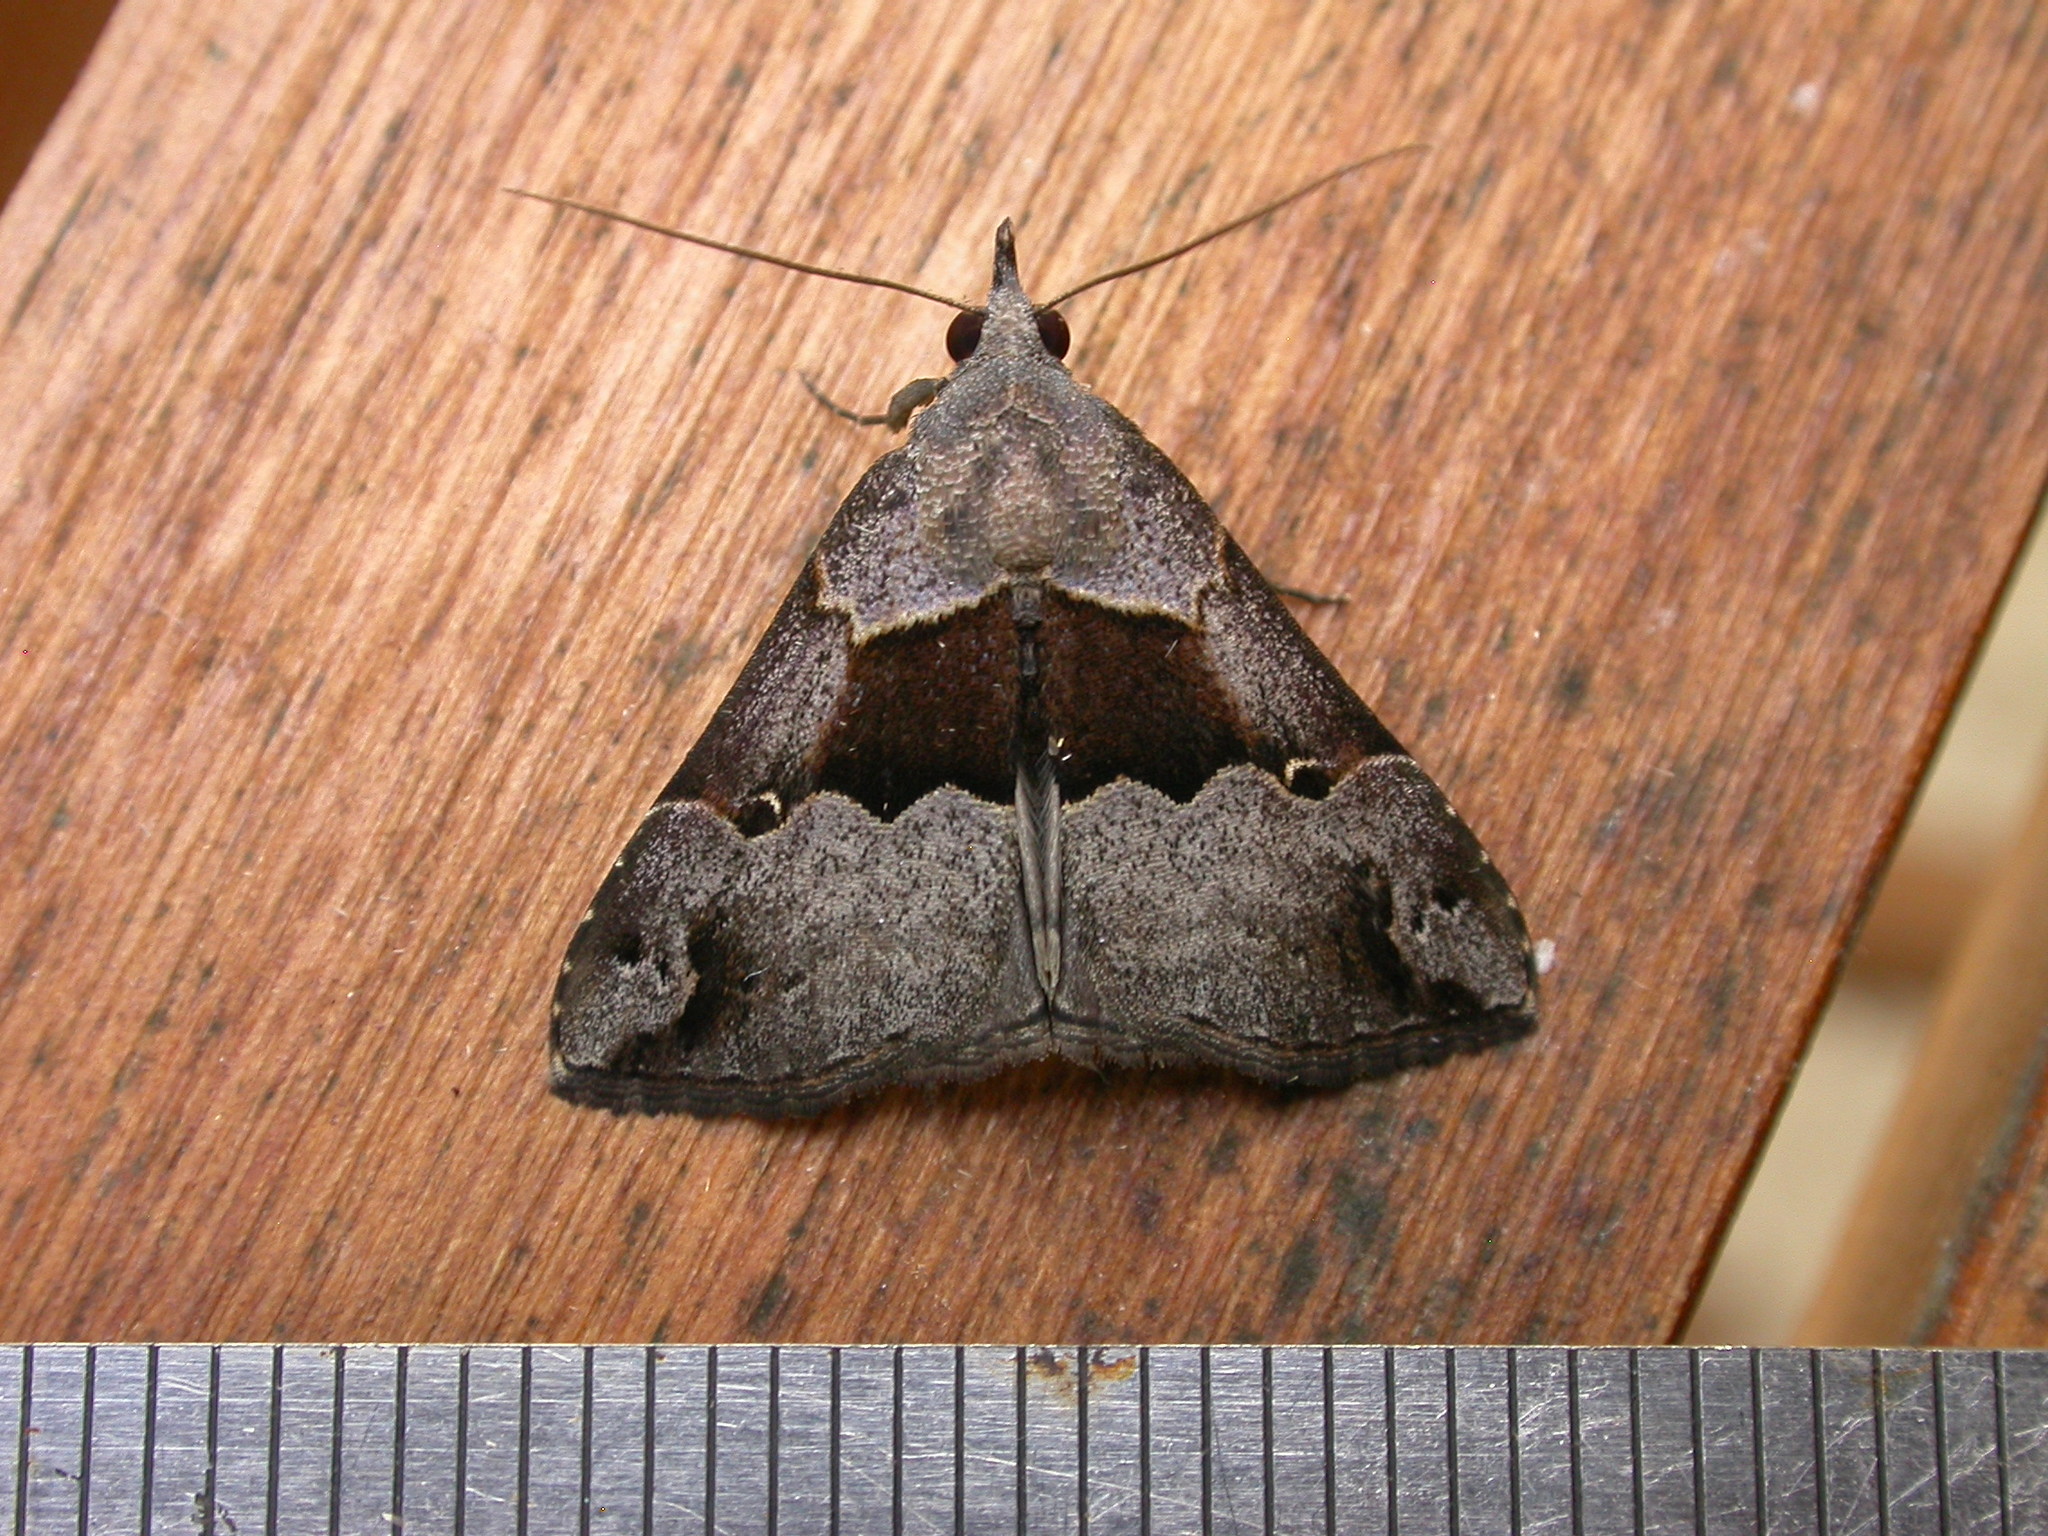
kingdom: Animalia
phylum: Arthropoda
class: Insecta
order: Lepidoptera
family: Erebidae
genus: Hypena
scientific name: Hypena gonospilalis
